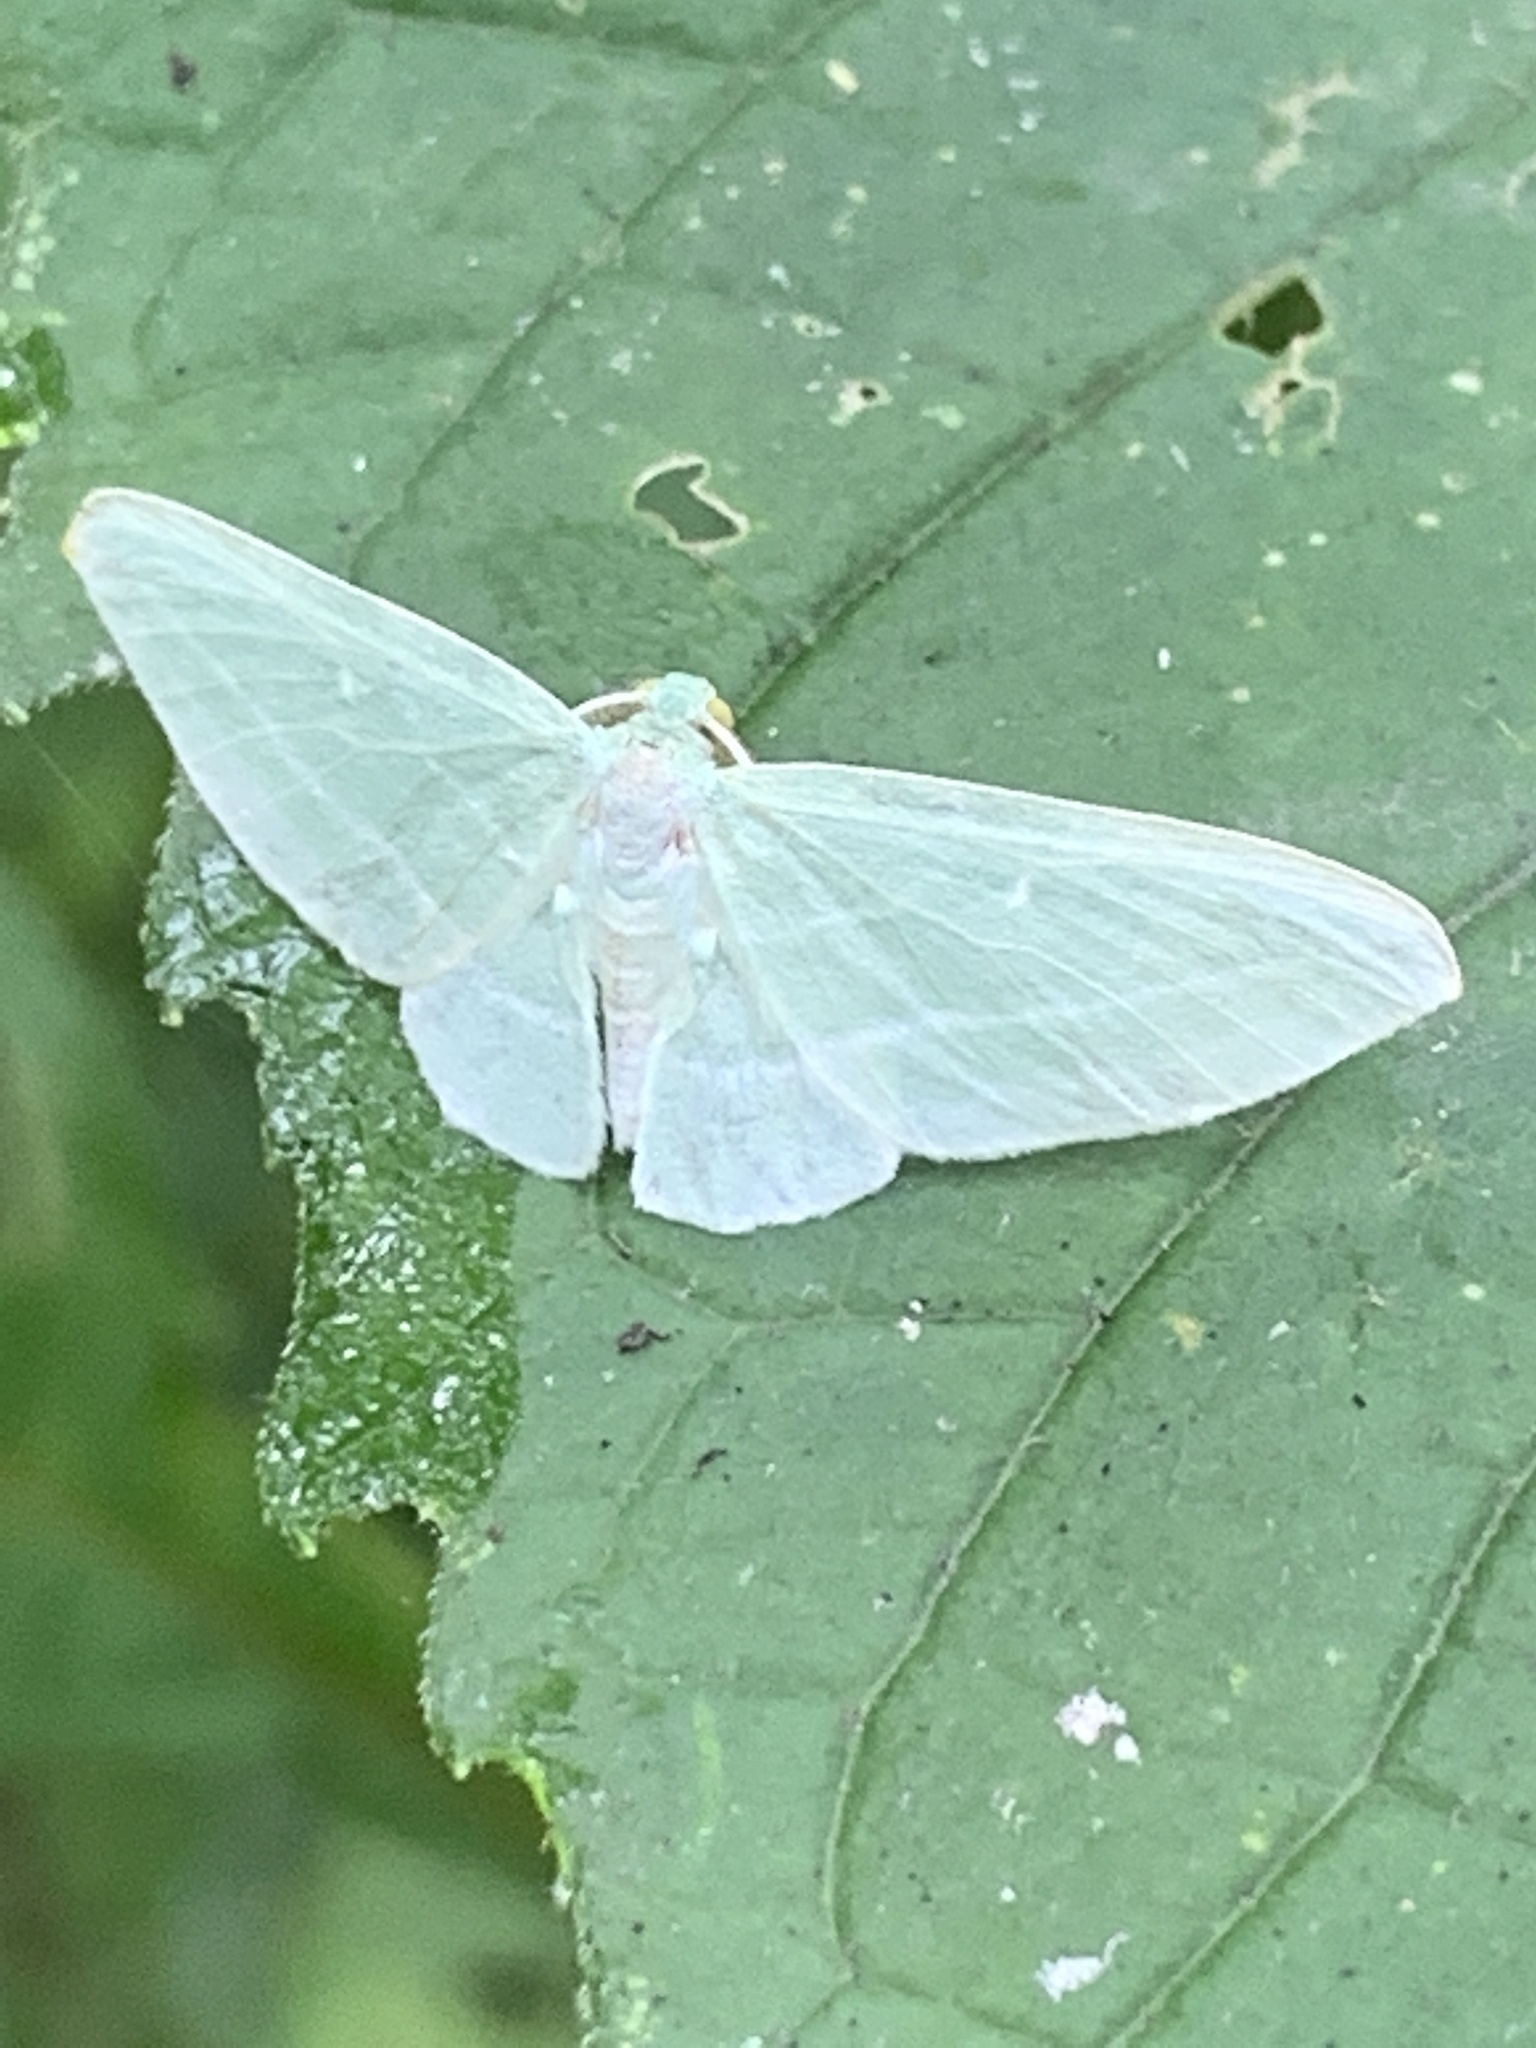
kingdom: Animalia
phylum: Arthropoda
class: Insecta
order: Lepidoptera
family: Geometridae
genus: Dyspteris
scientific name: Dyspteris abortivaria
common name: Bad-wing
